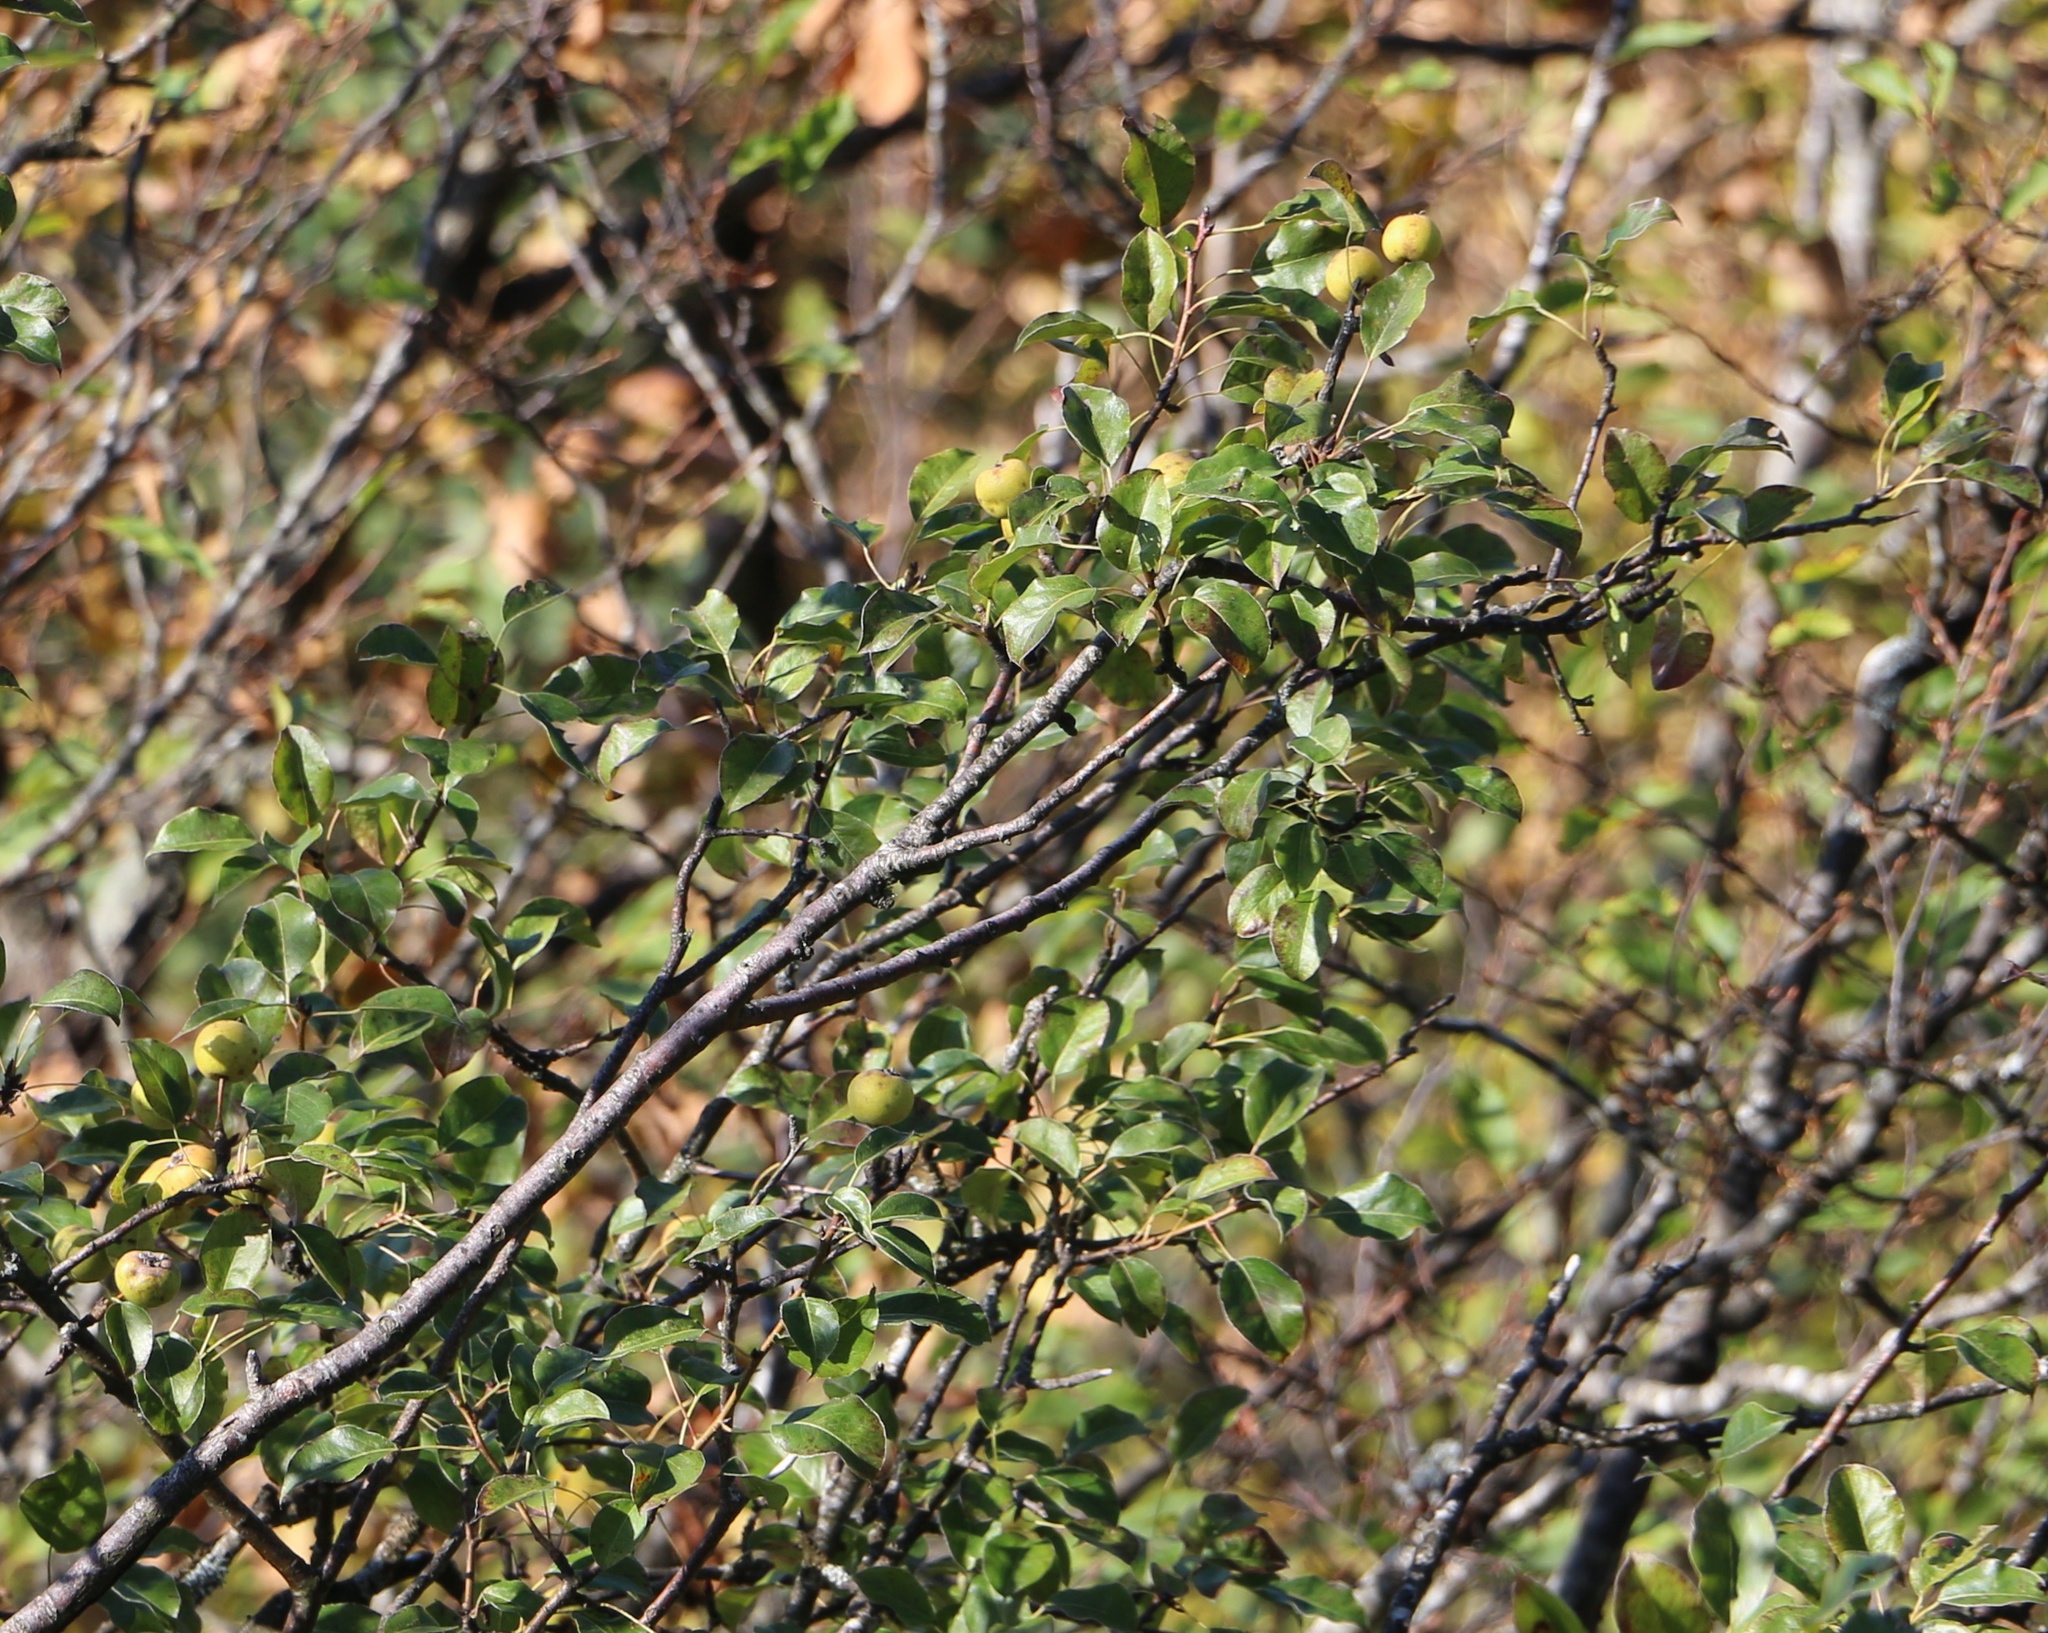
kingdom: Plantae
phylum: Tracheophyta
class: Magnoliopsida
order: Rosales
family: Rosaceae
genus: Pyrus
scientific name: Pyrus communis
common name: Pear
